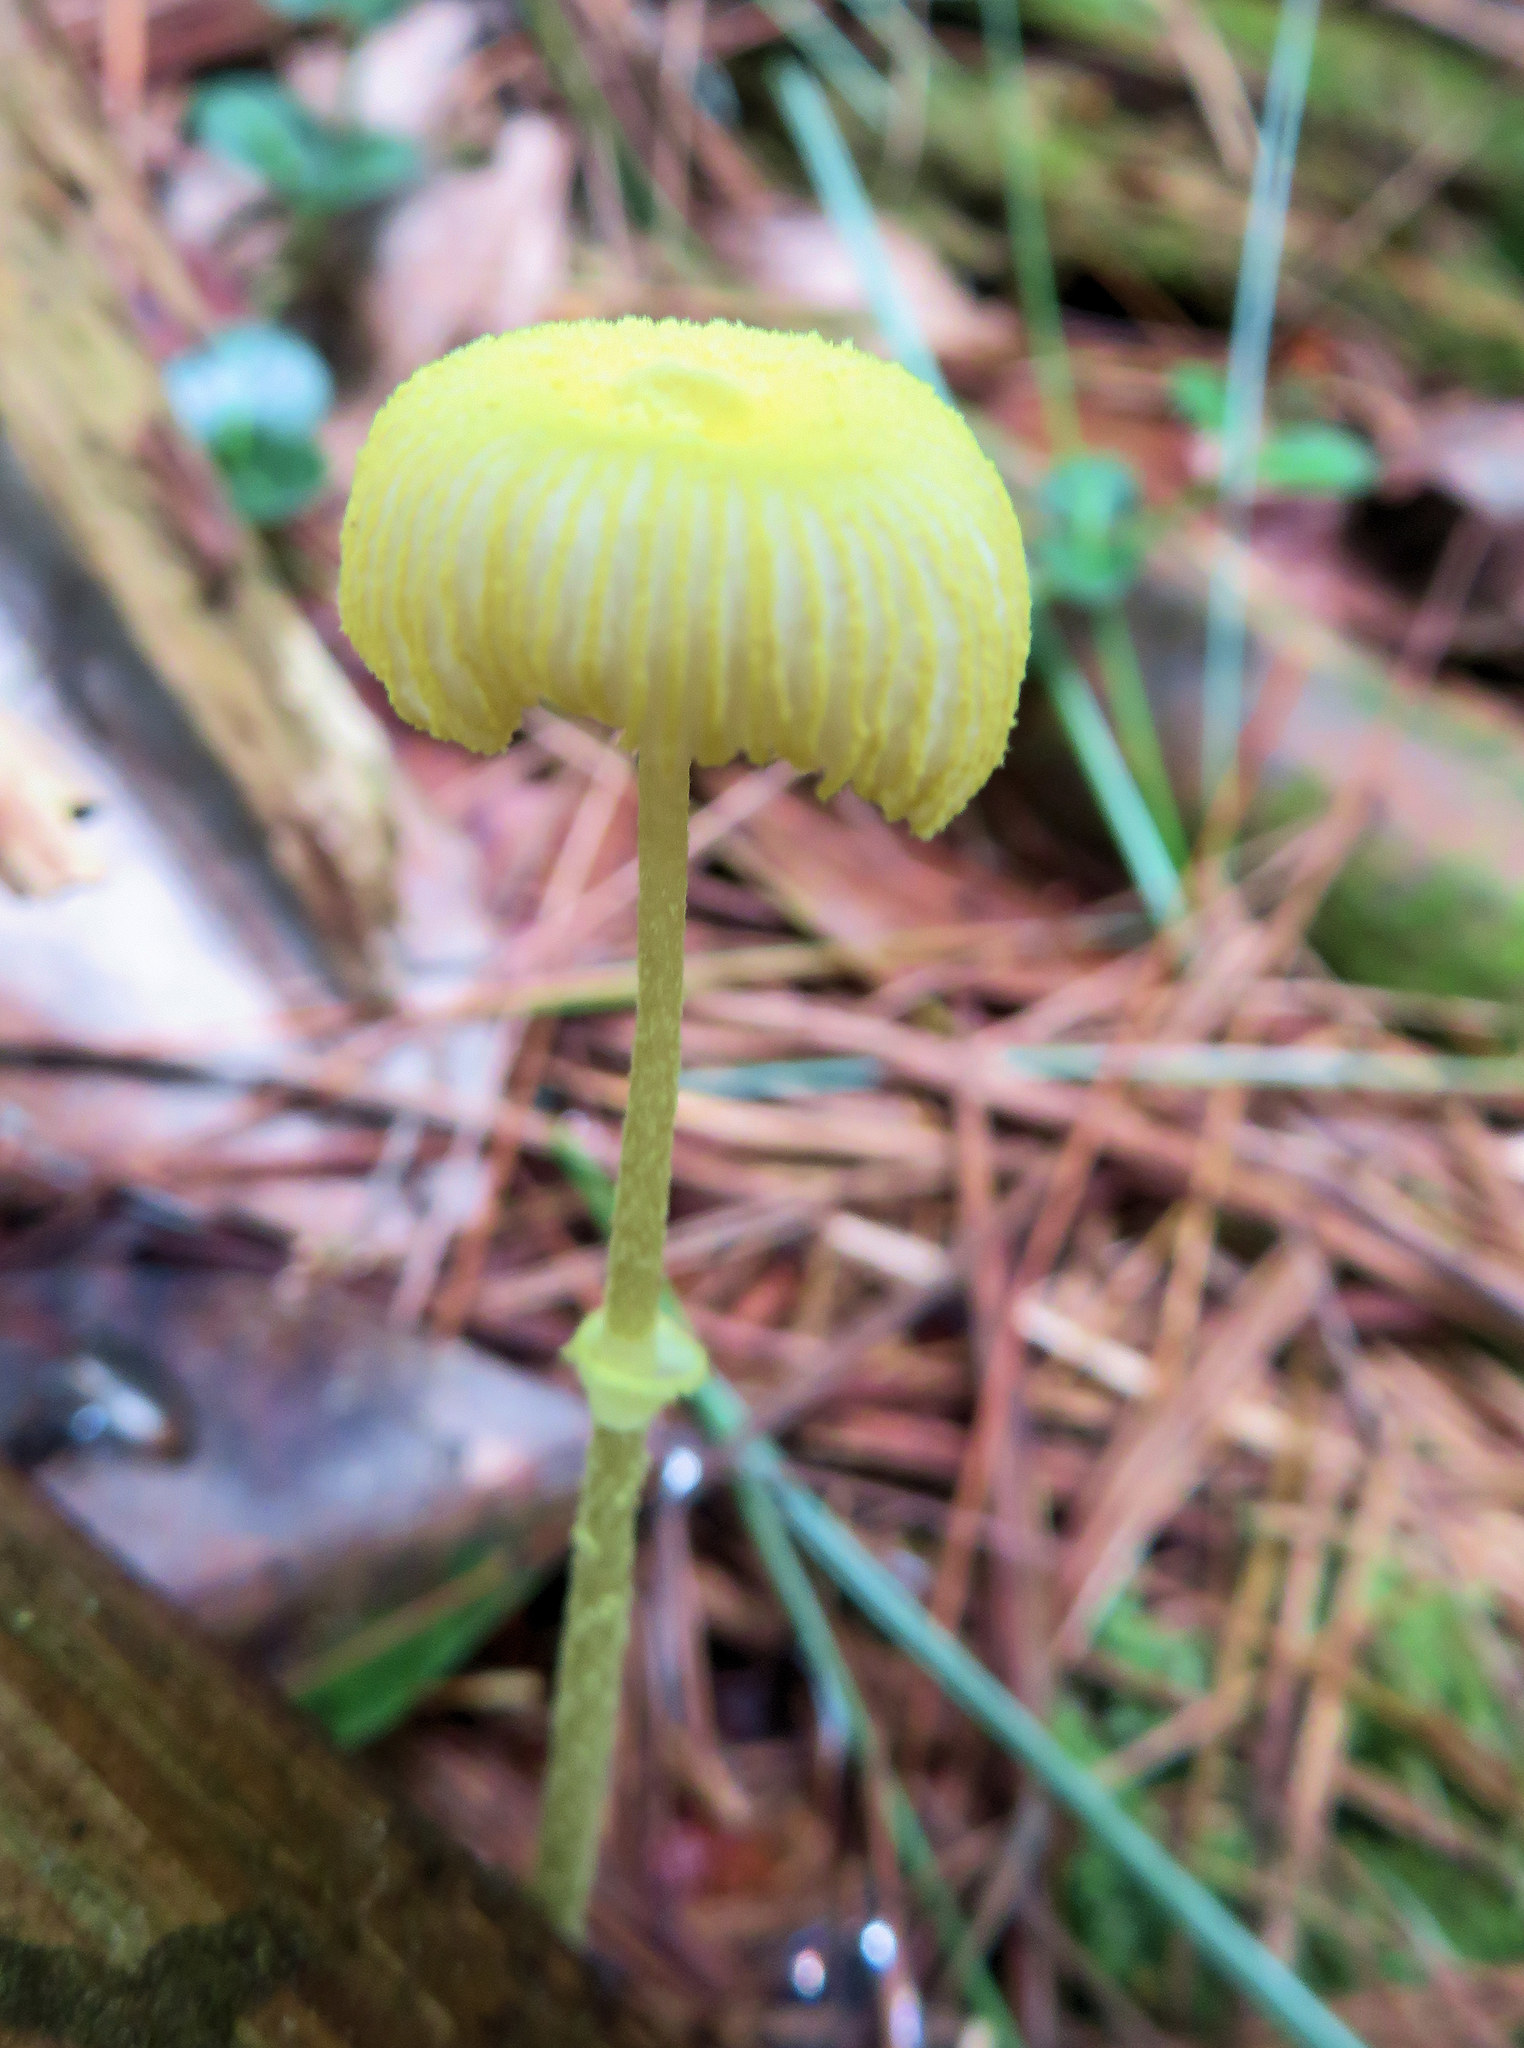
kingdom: Fungi
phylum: Basidiomycota
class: Agaricomycetes
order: Agaricales
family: Agaricaceae
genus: Leucocoprinus
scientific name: Leucocoprinus fragilissimus
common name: Fragile dapperling
